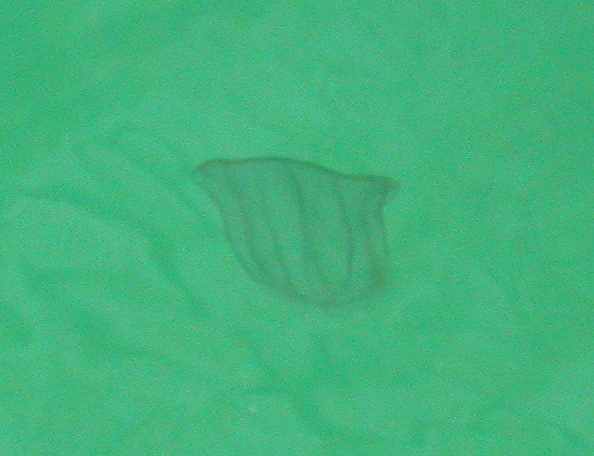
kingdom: Animalia
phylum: Ctenophora
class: Nuda
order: Beroida
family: Beroidae
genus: Beroe
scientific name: Beroe ovata
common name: Flattened helmet comb jelly
